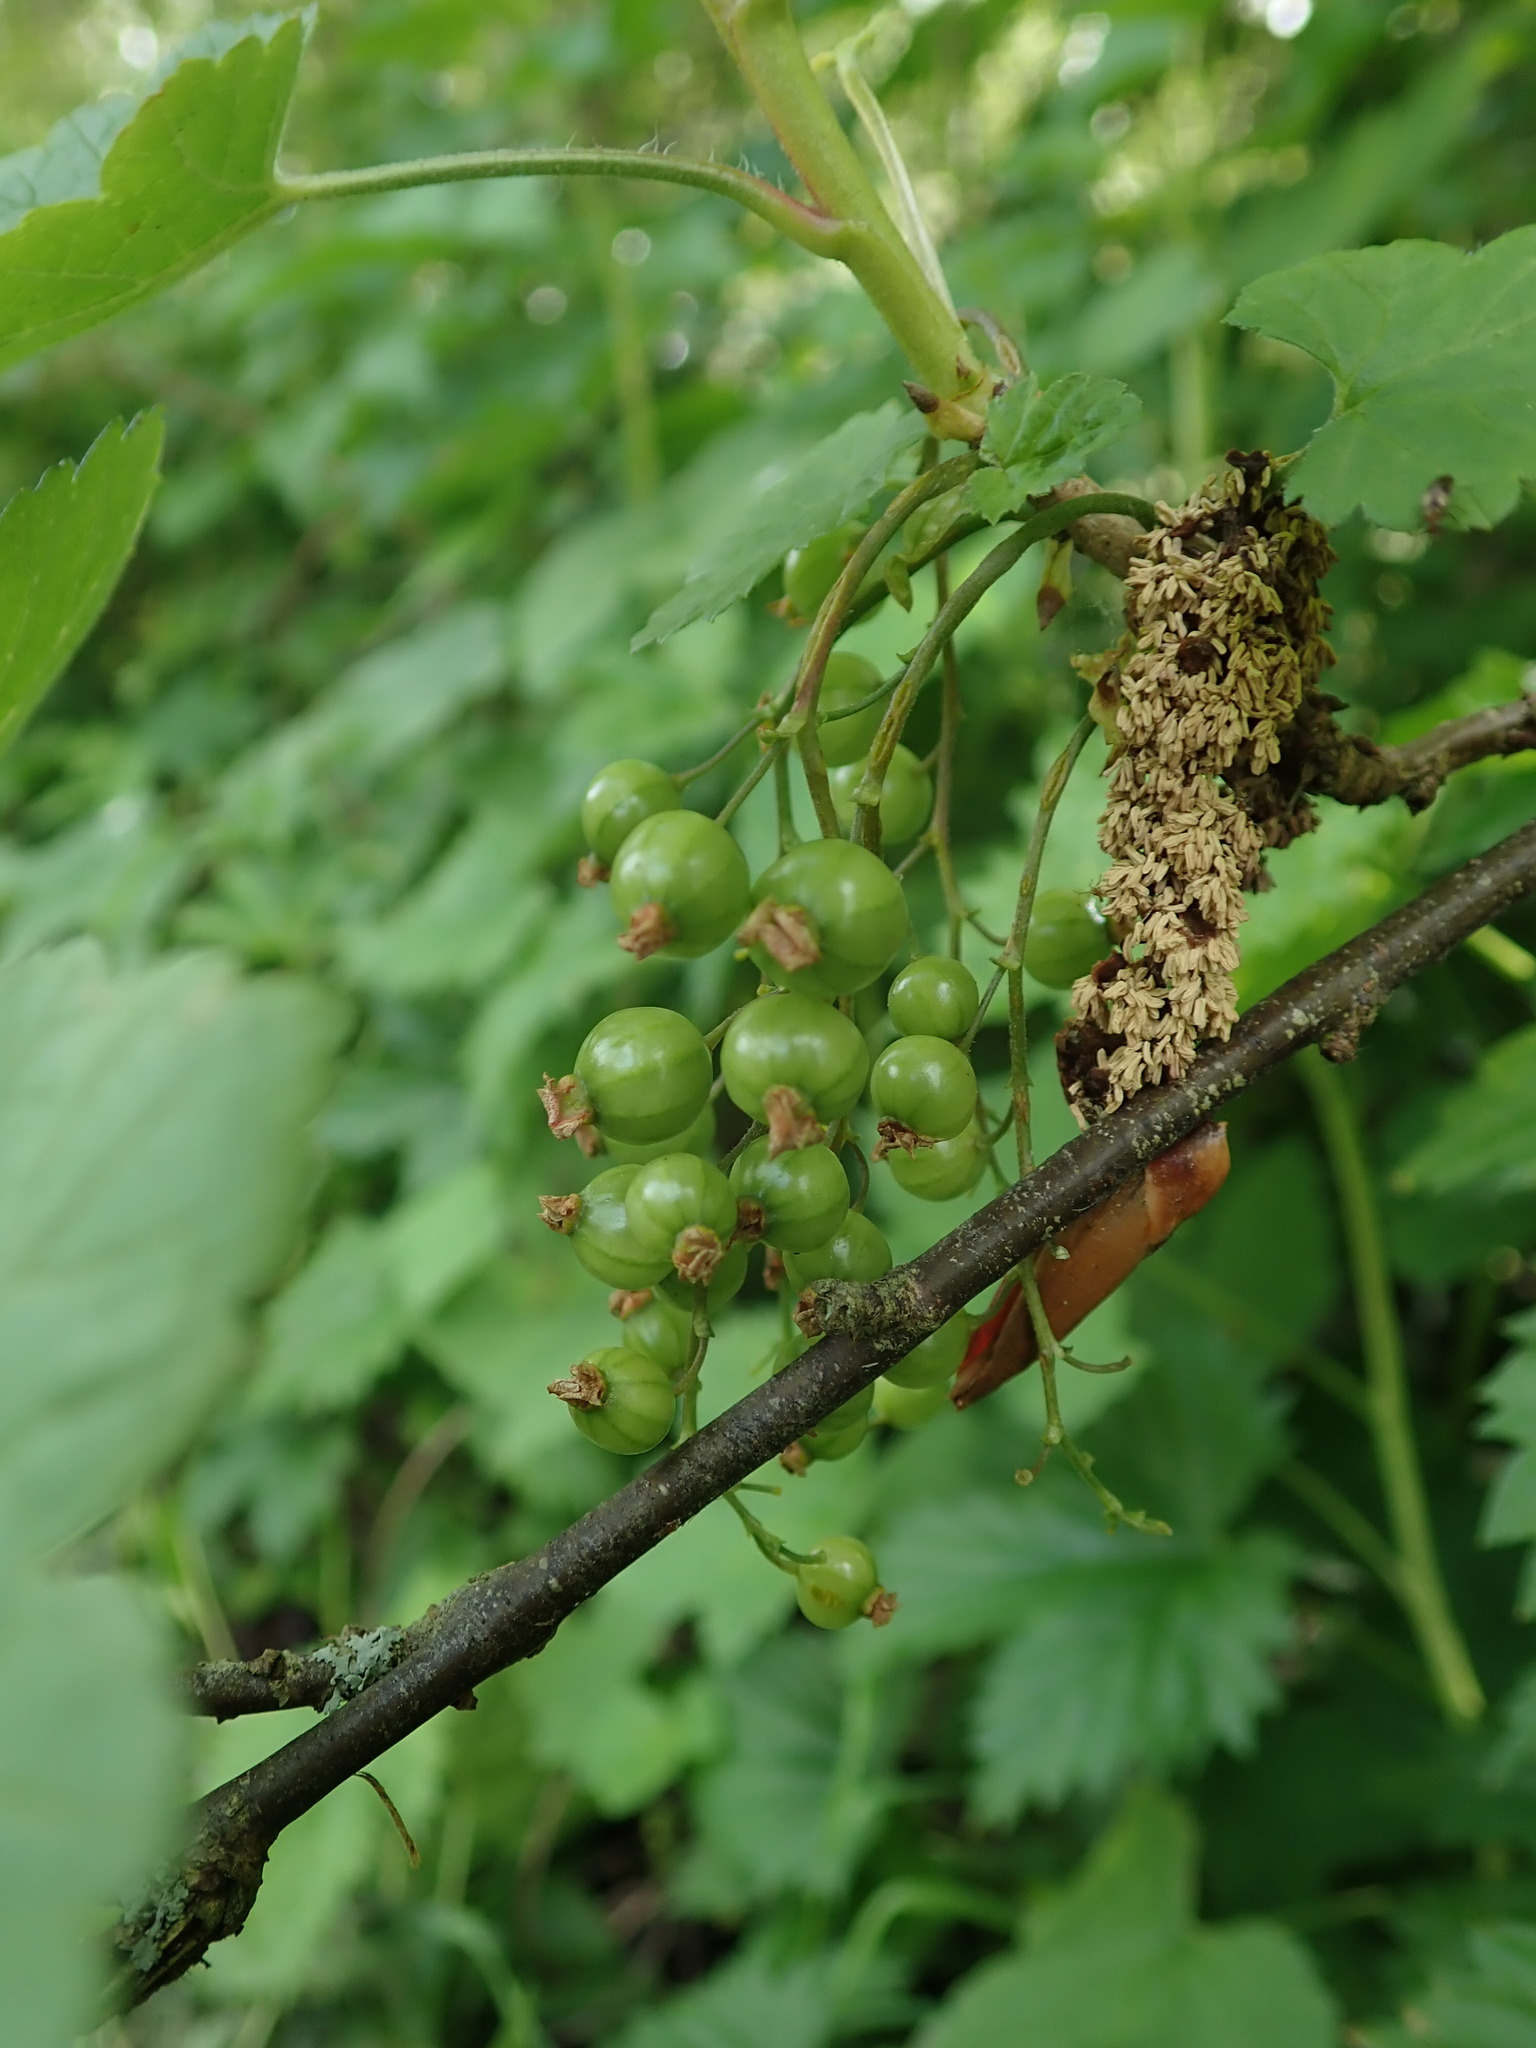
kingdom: Plantae
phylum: Tracheophyta
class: Magnoliopsida
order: Saxifragales
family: Grossulariaceae
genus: Ribes
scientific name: Ribes rubrum
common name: Red currant
